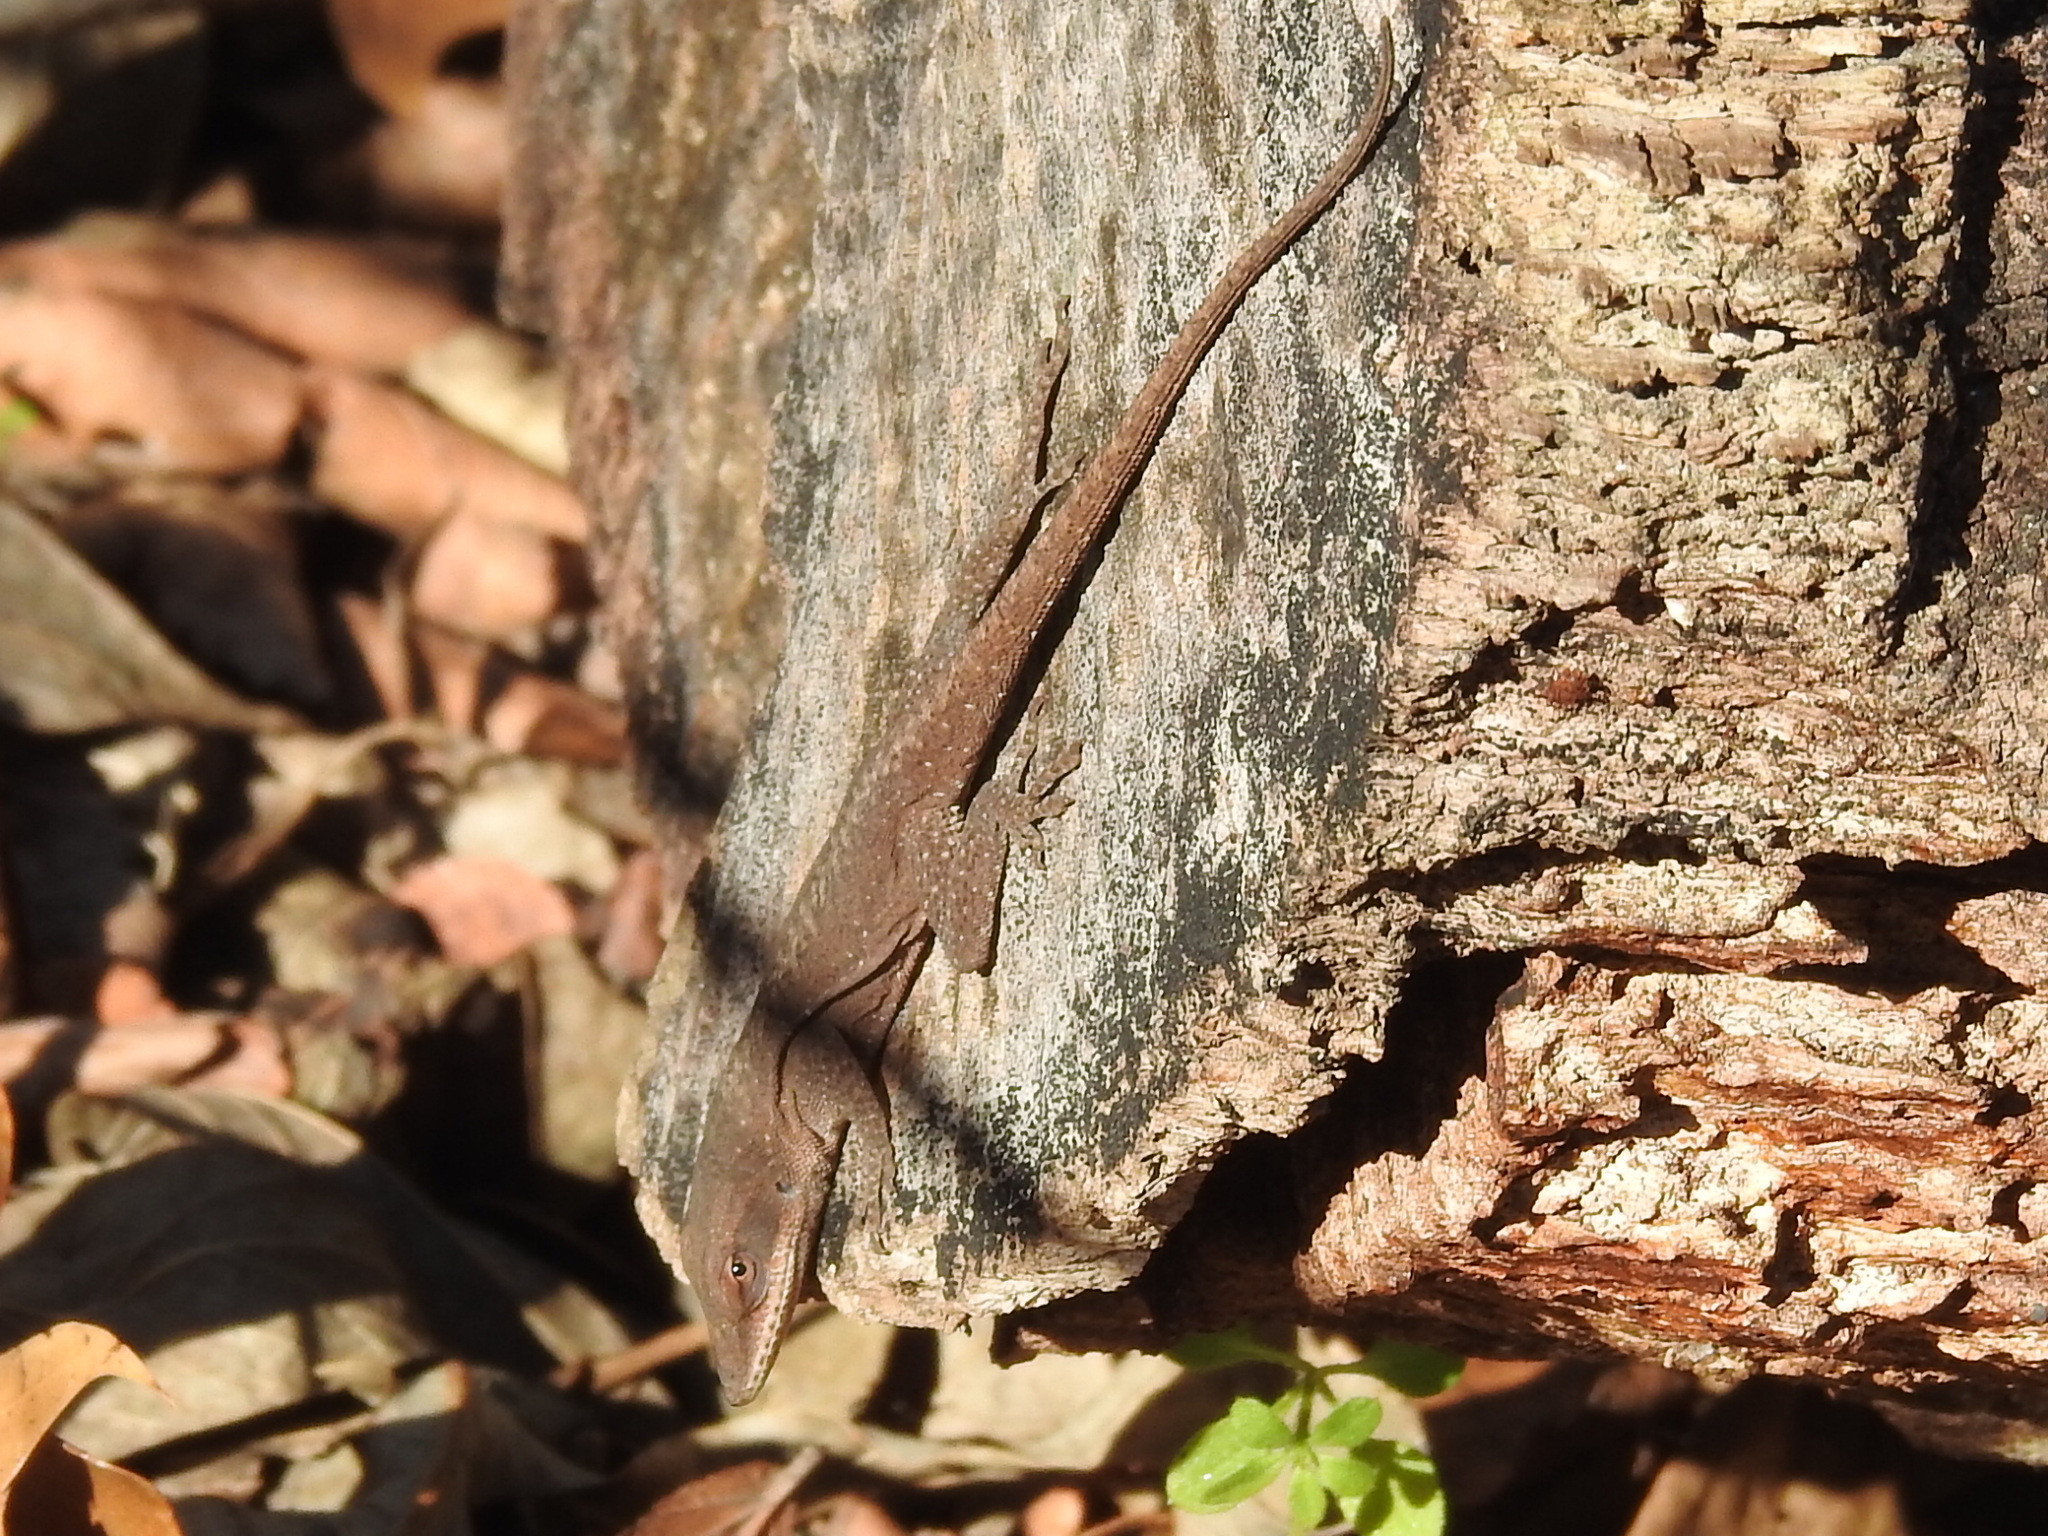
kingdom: Animalia
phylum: Chordata
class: Squamata
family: Dactyloidae
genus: Anolis
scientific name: Anolis carolinensis
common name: Green anole
